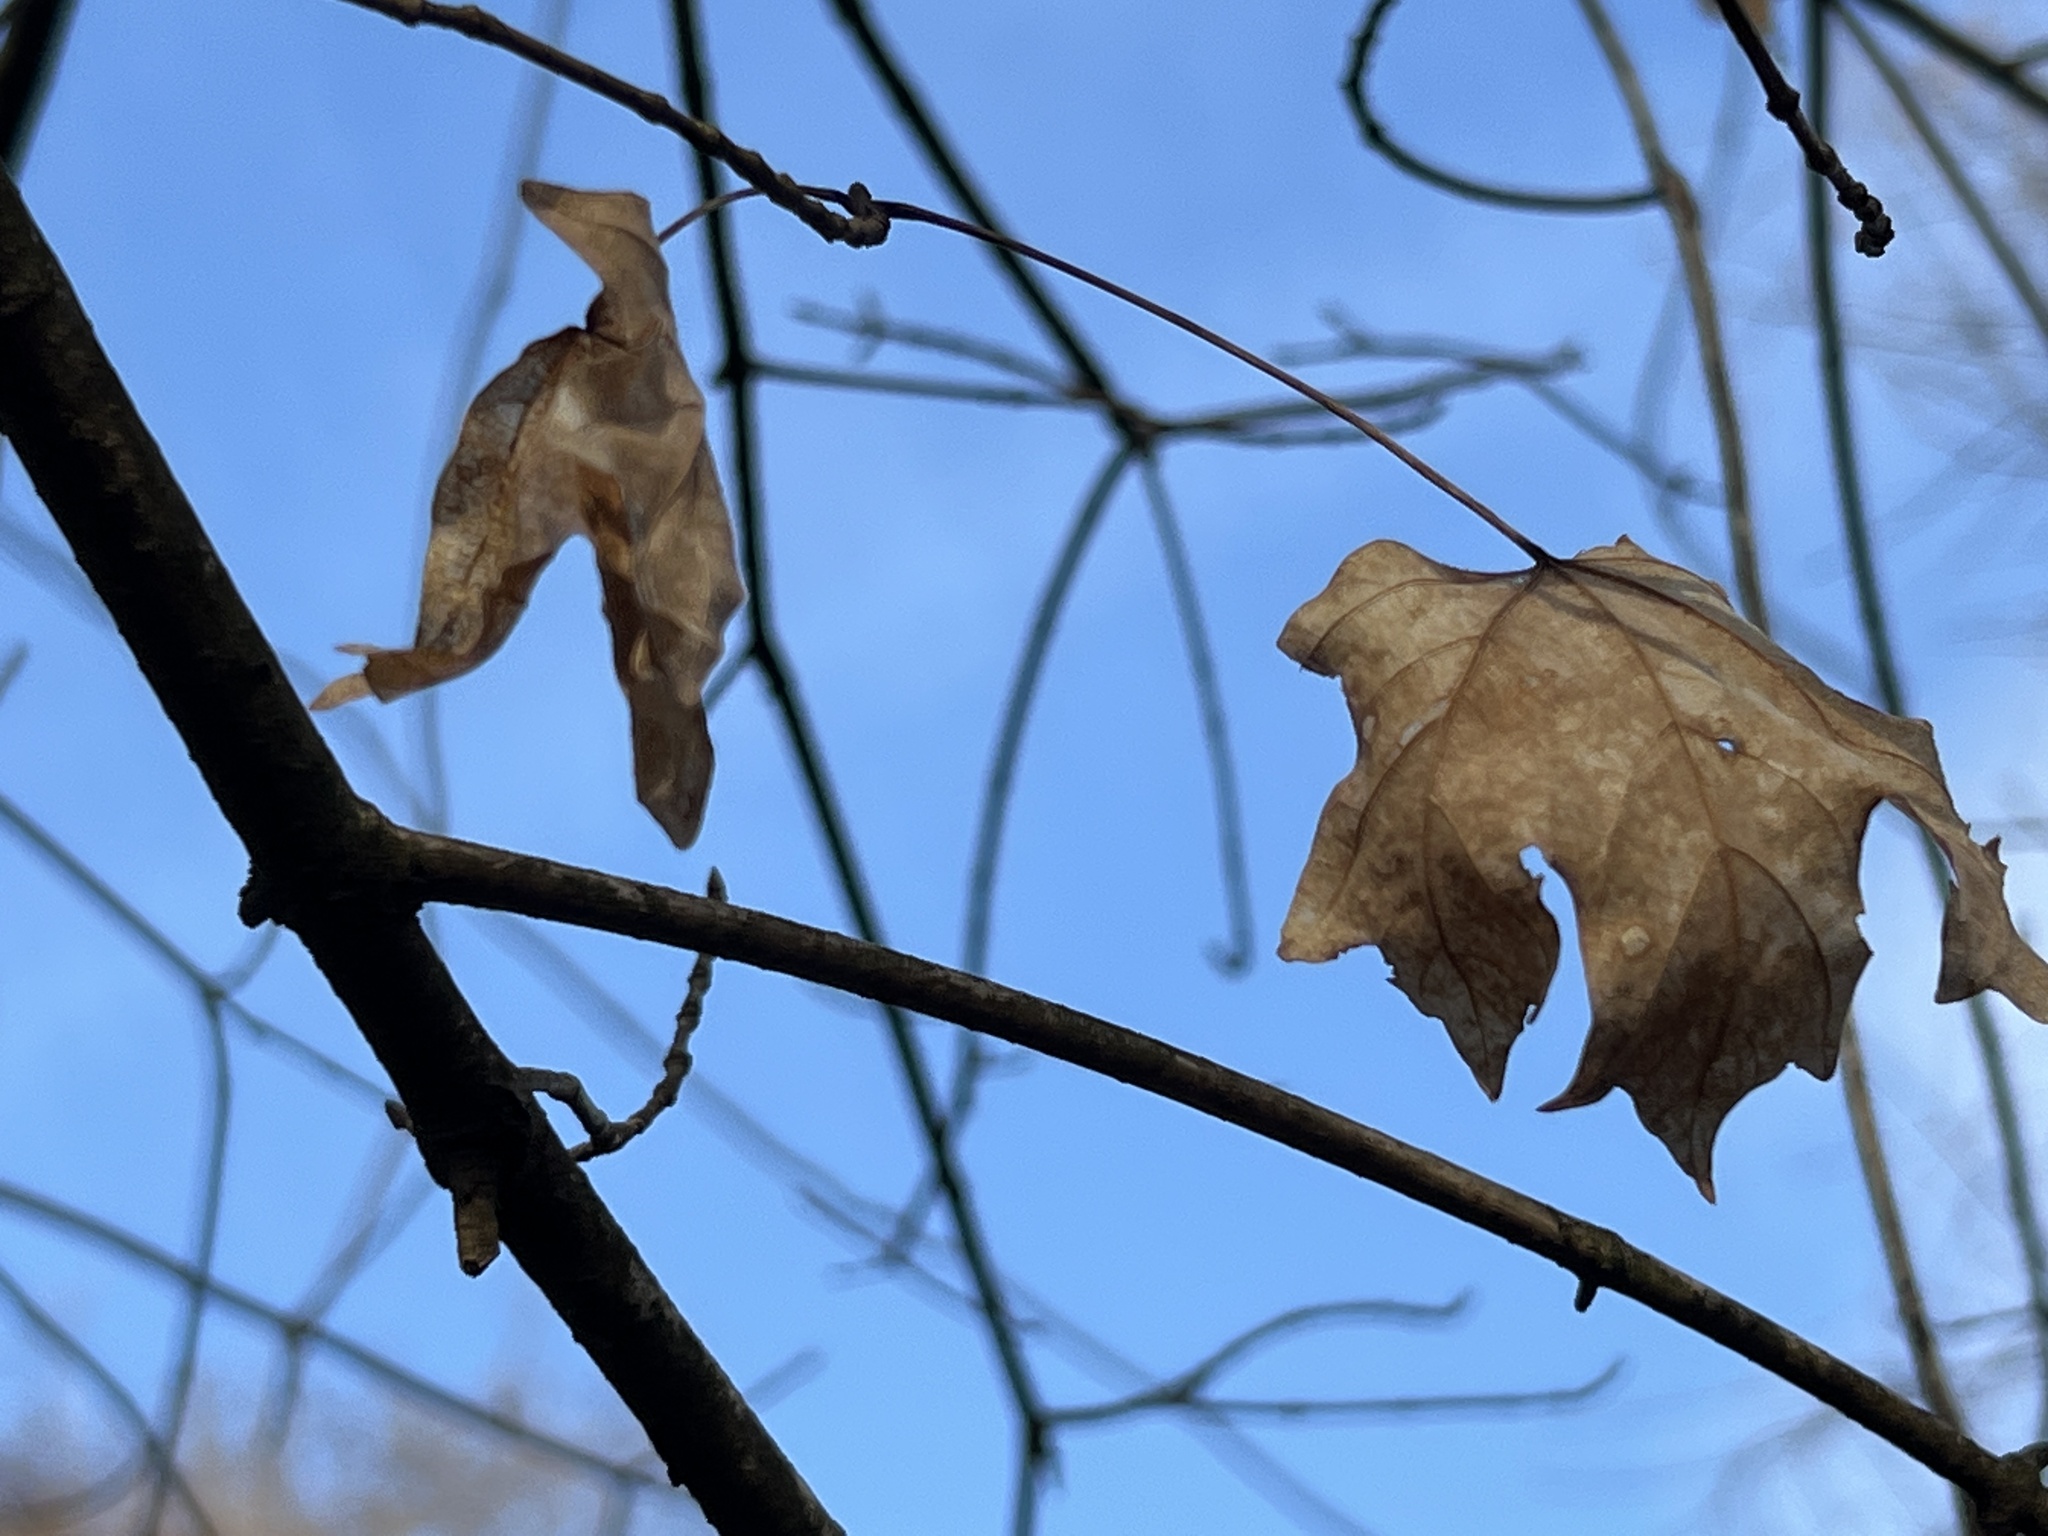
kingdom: Plantae
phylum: Tracheophyta
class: Magnoliopsida
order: Sapindales
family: Sapindaceae
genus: Acer
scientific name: Acer floridanum
